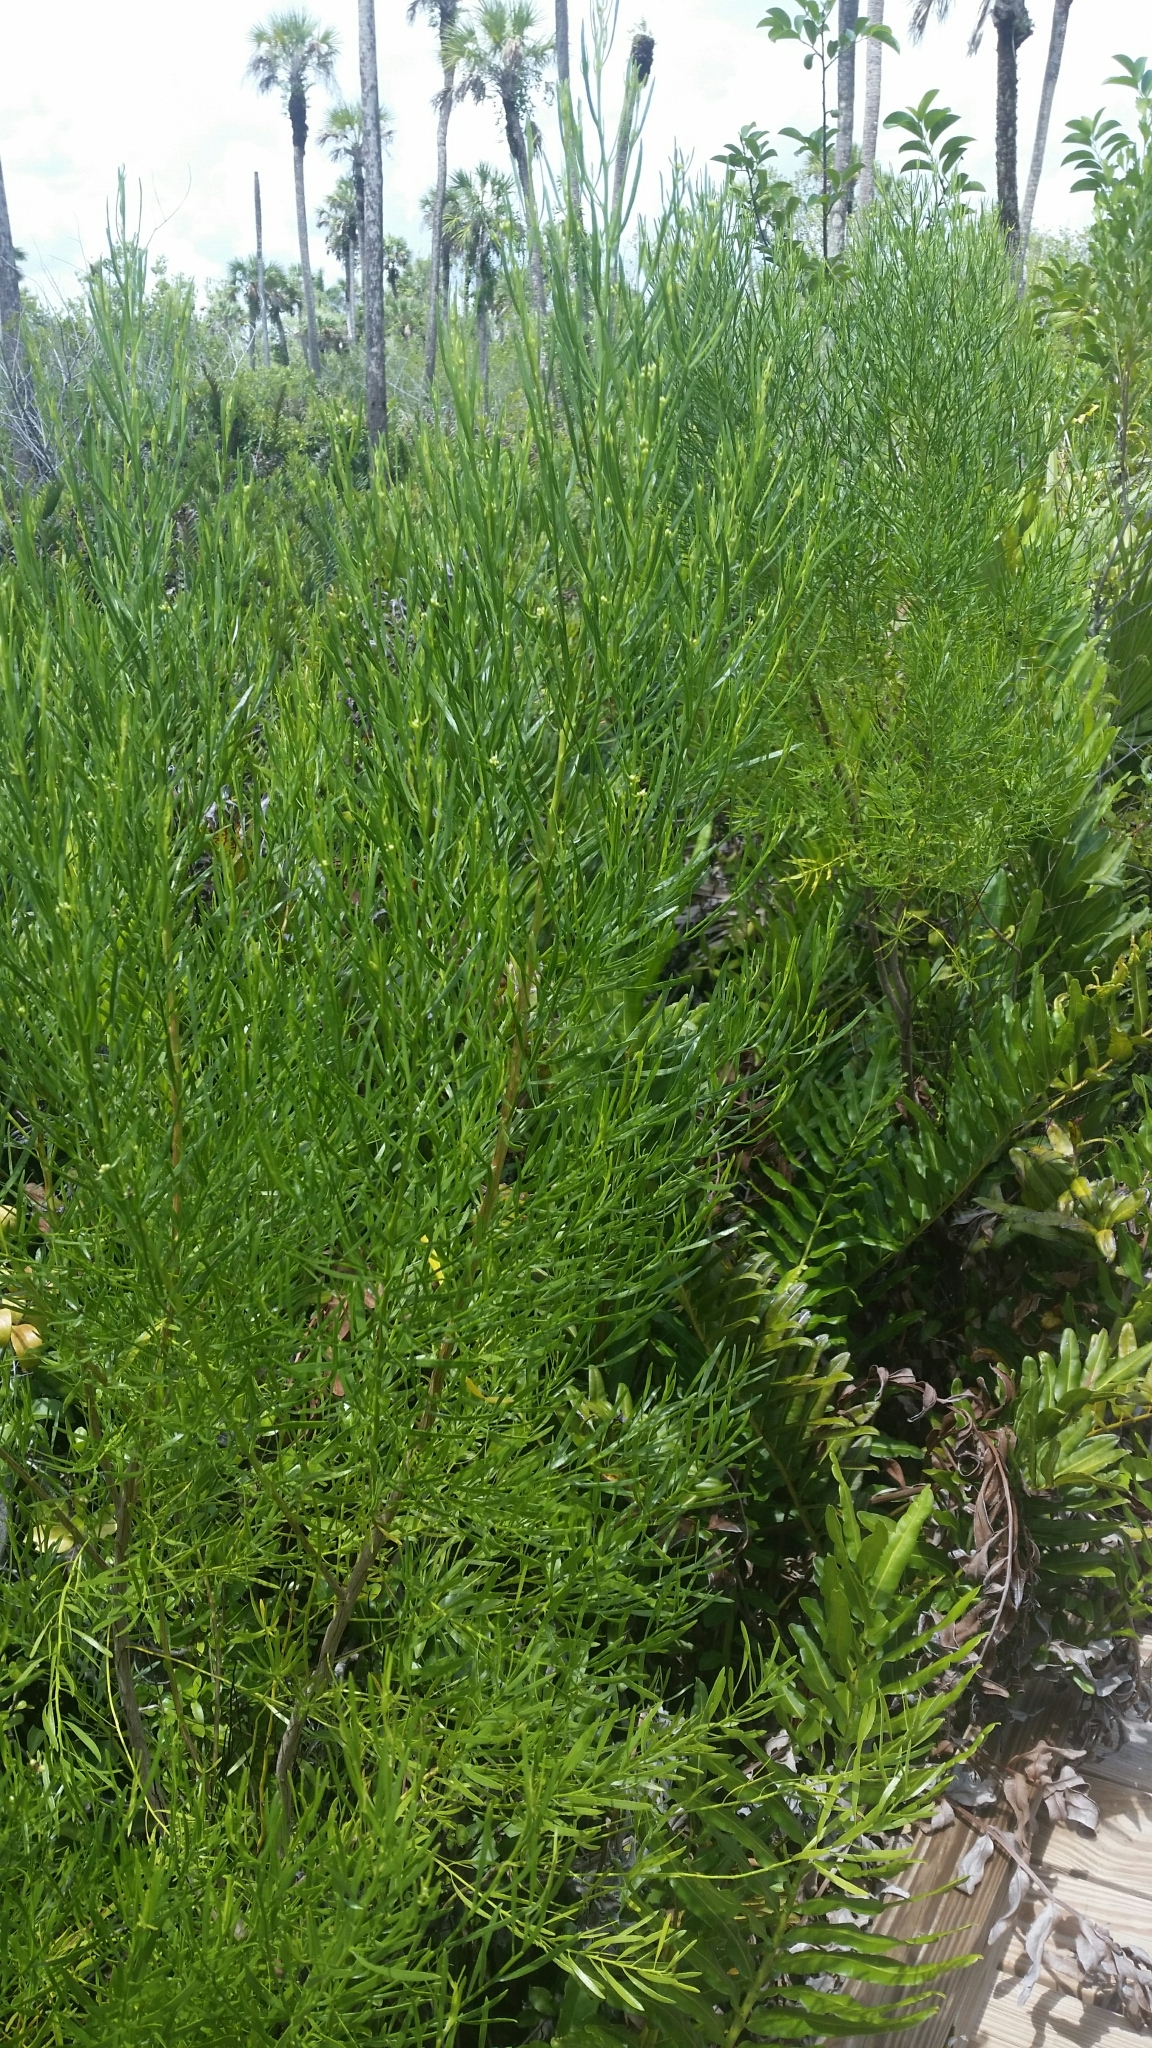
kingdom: Plantae
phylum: Tracheophyta
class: Magnoliopsida
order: Asterales
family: Asteraceae
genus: Baccharis
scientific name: Baccharis angustifolia
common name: Narrow-leaf baccharis
